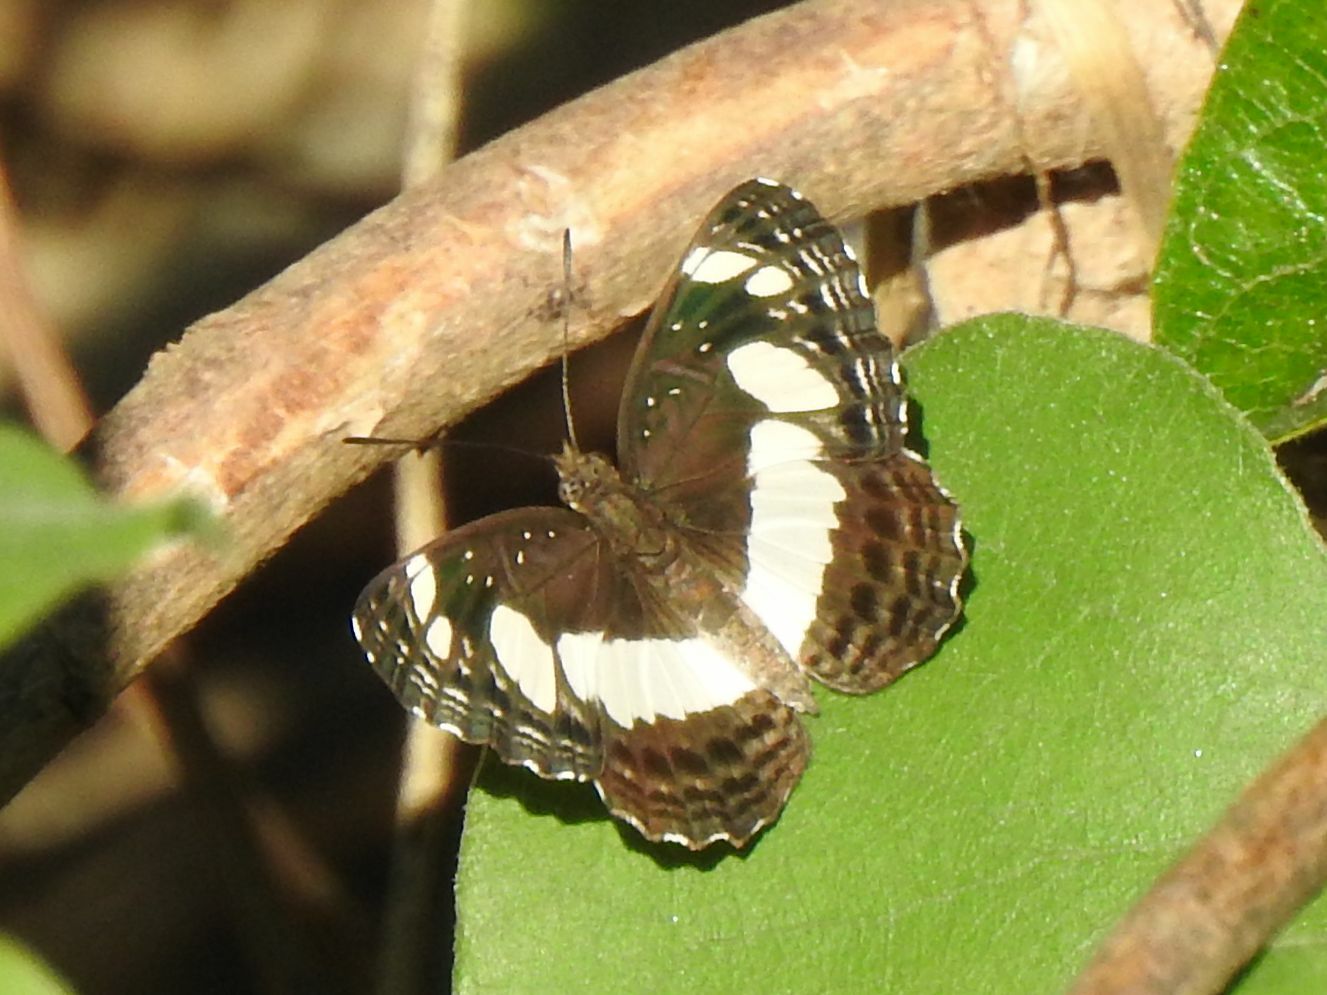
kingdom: Animalia
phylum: Arthropoda
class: Insecta
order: Lepidoptera
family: Nymphalidae
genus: Neptis
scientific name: Neptis saclava
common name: Small spotted sailor
